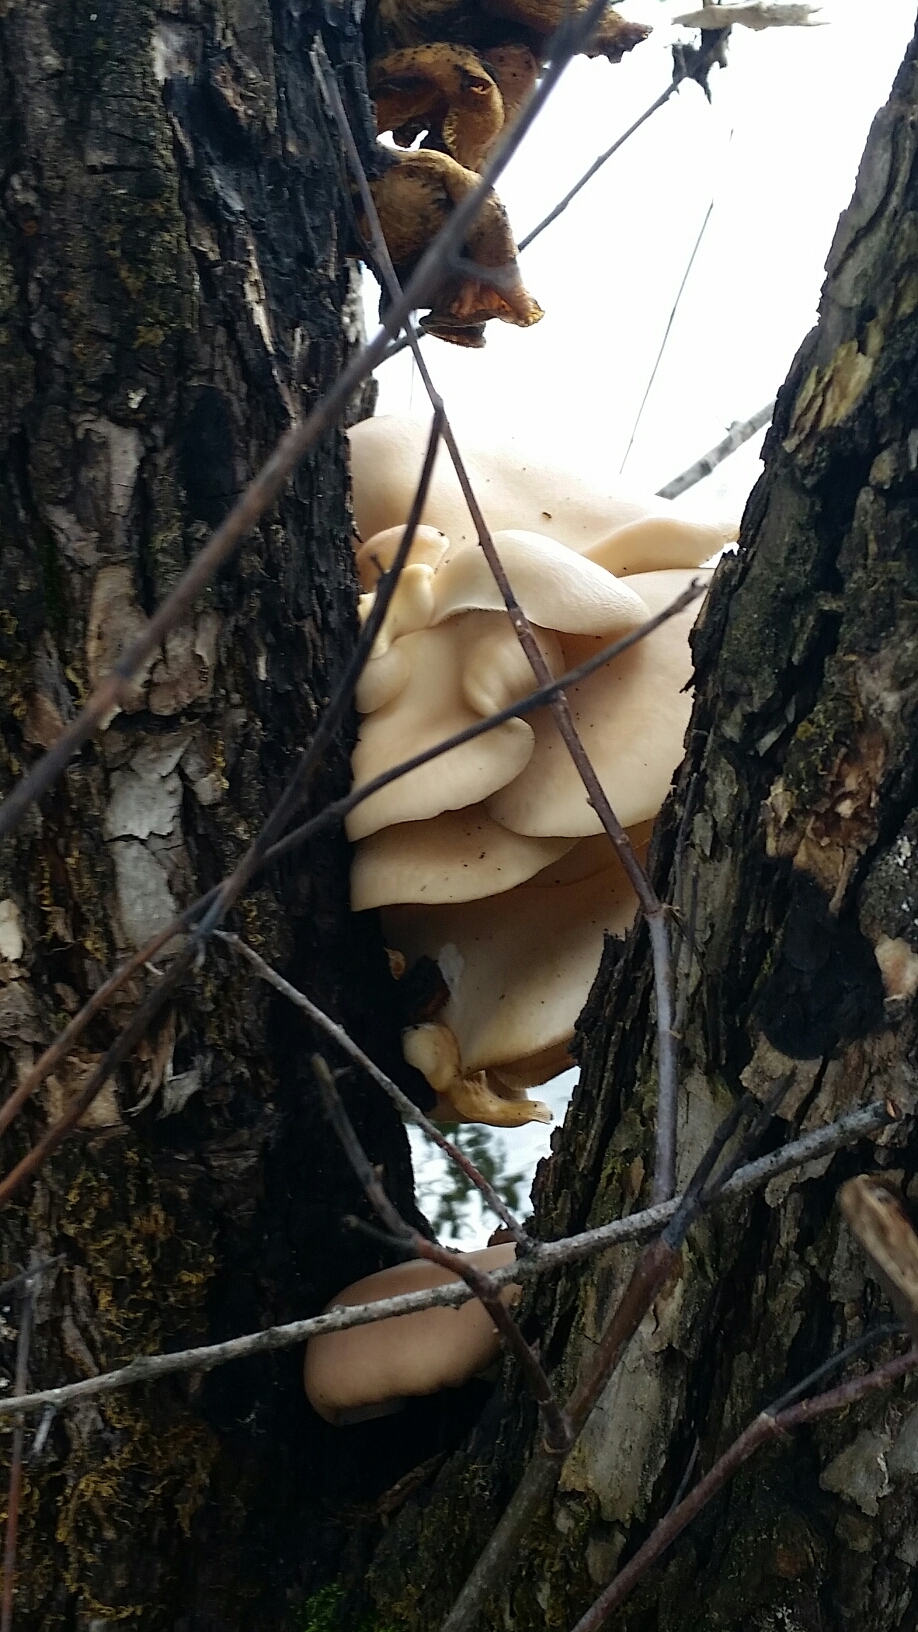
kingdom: Fungi
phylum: Basidiomycota
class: Agaricomycetes
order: Agaricales
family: Pleurotaceae
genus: Pleurotus
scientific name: Pleurotus pulmonarius
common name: Pale oyster
